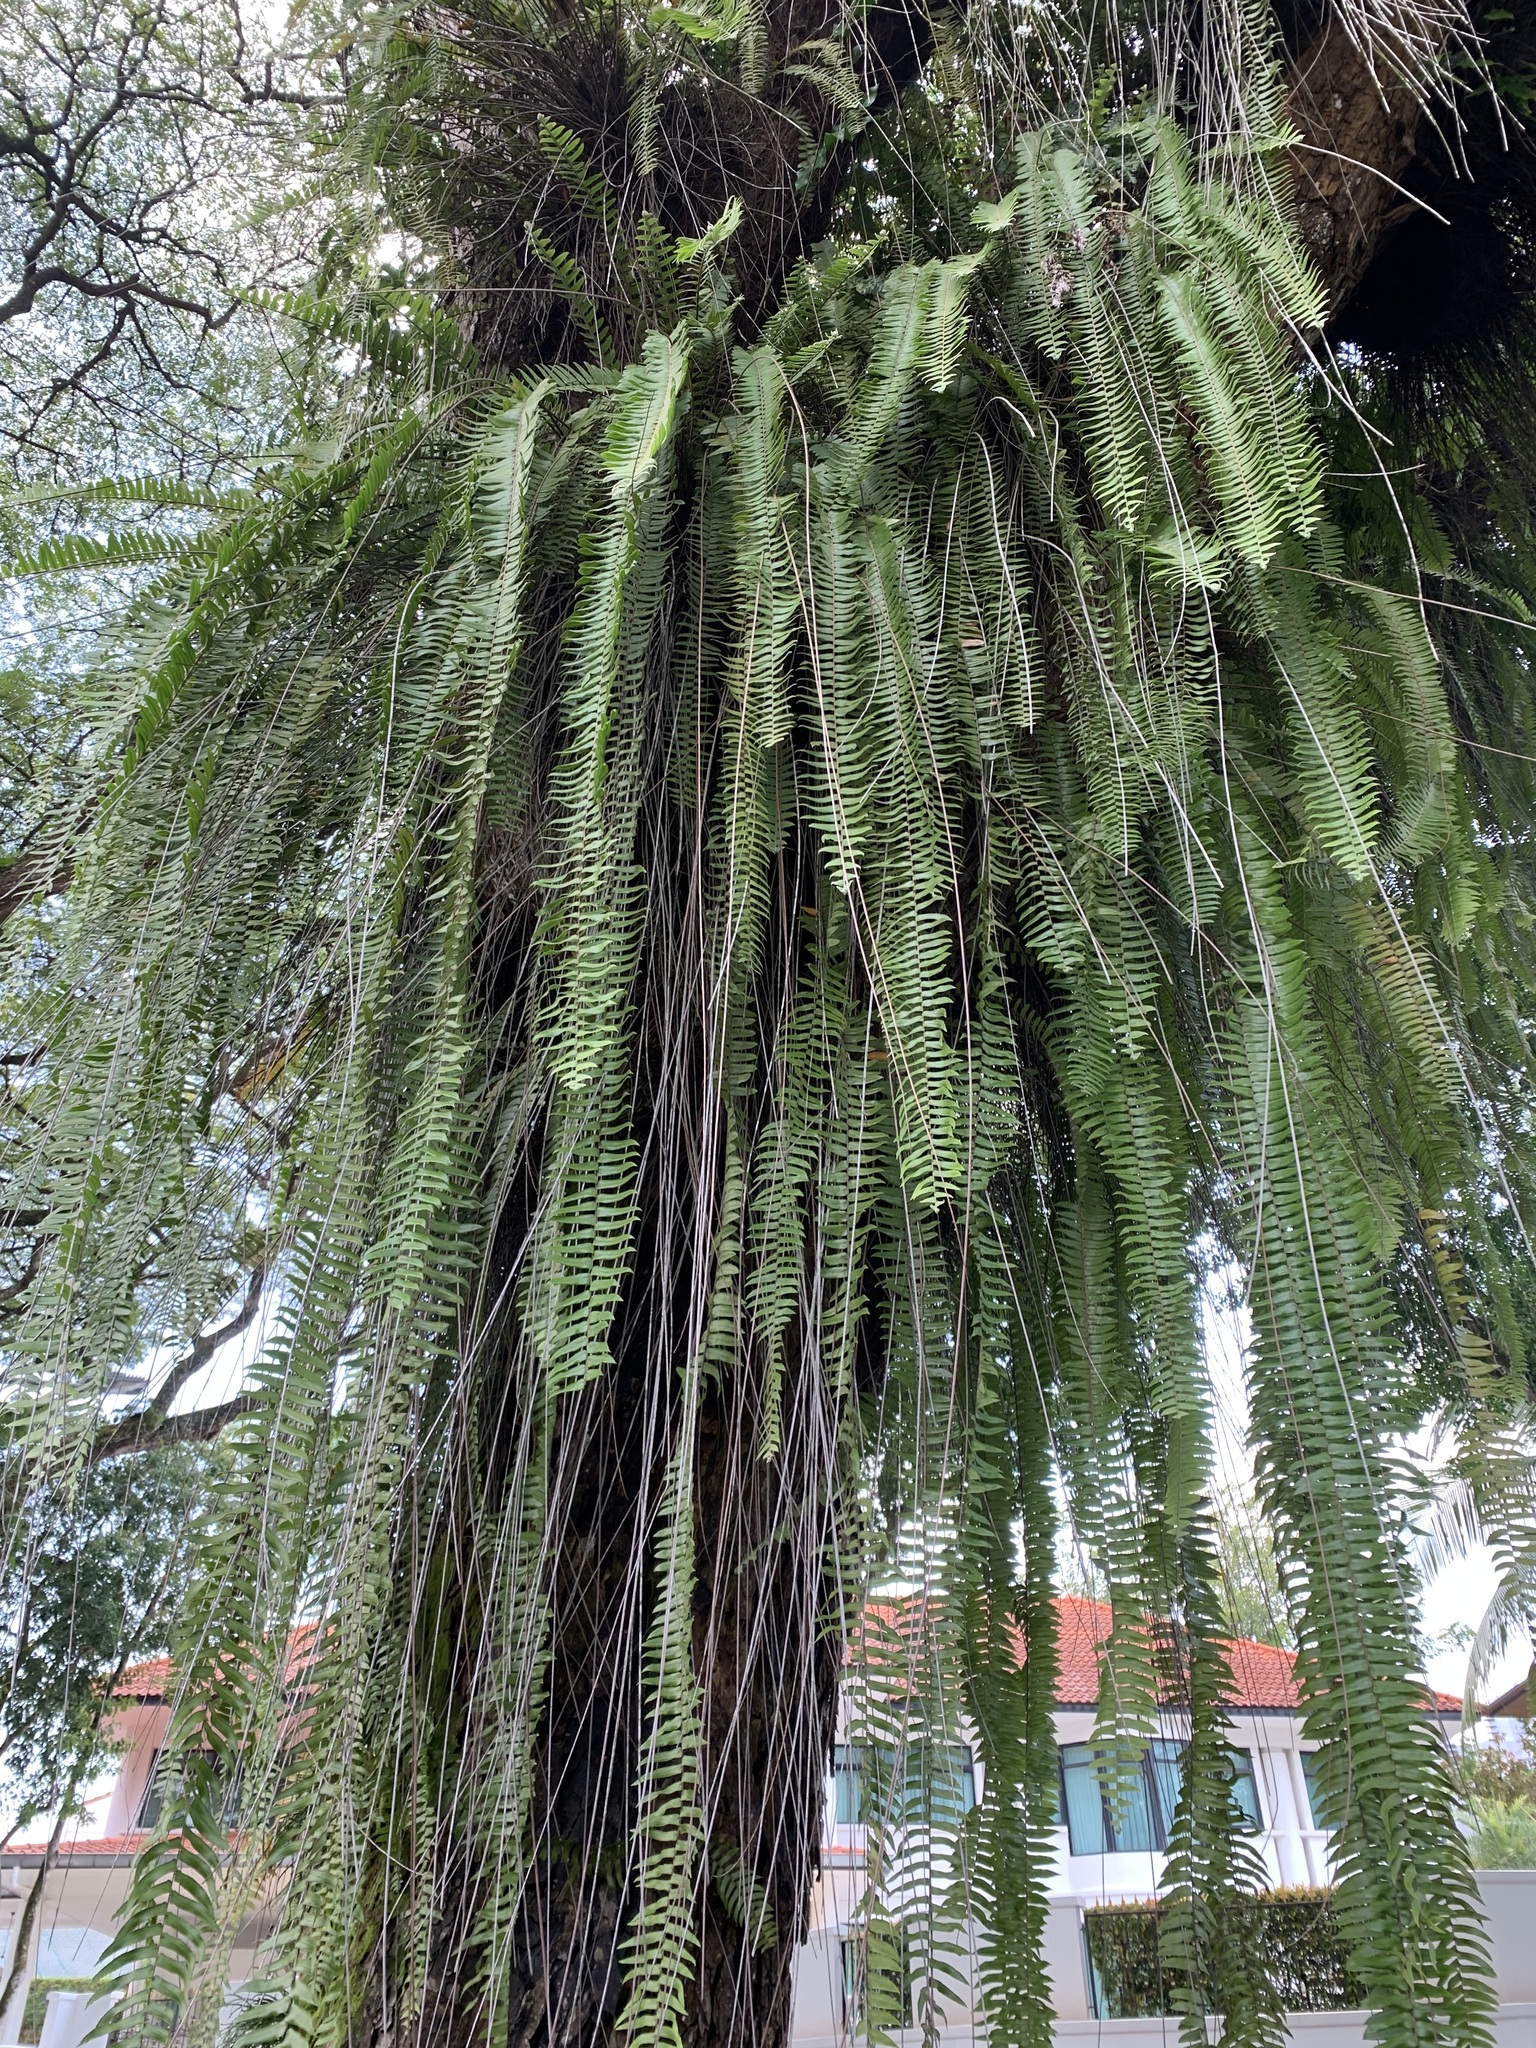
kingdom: Plantae
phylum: Tracheophyta
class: Polypodiopsida
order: Polypodiales
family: Nephrolepidaceae
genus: Nephrolepis
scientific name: Nephrolepis acutifolia
